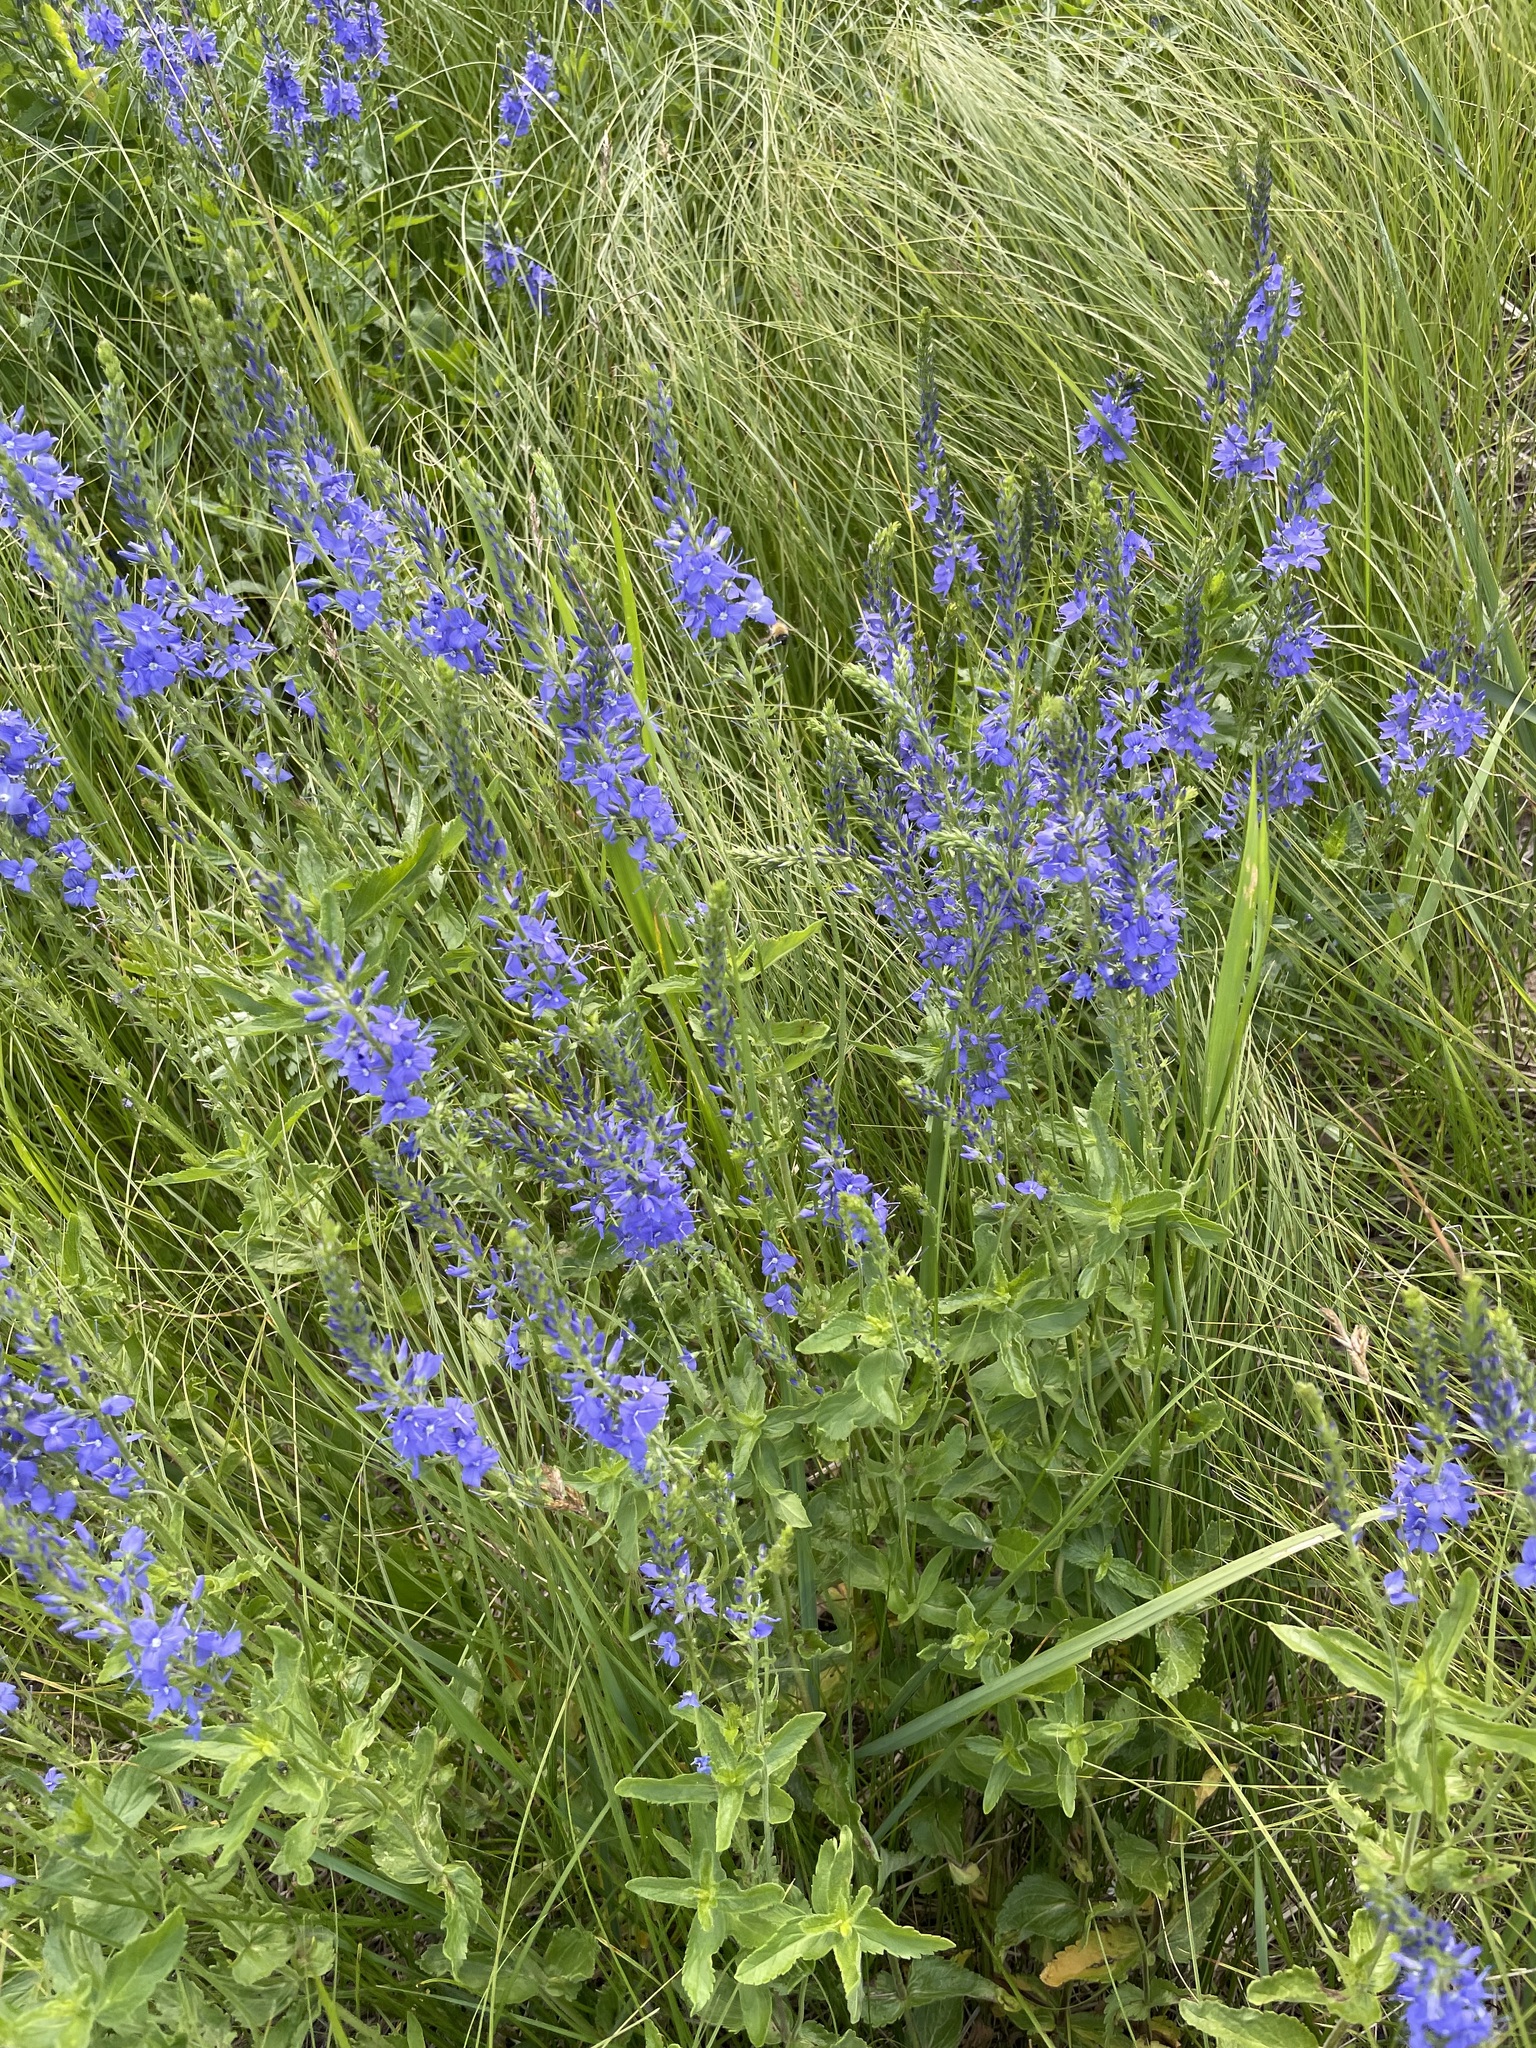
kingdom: Plantae
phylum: Tracheophyta
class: Magnoliopsida
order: Lamiales
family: Plantaginaceae
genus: Veronica
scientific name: Veronica teucrium
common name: Large speedwell
